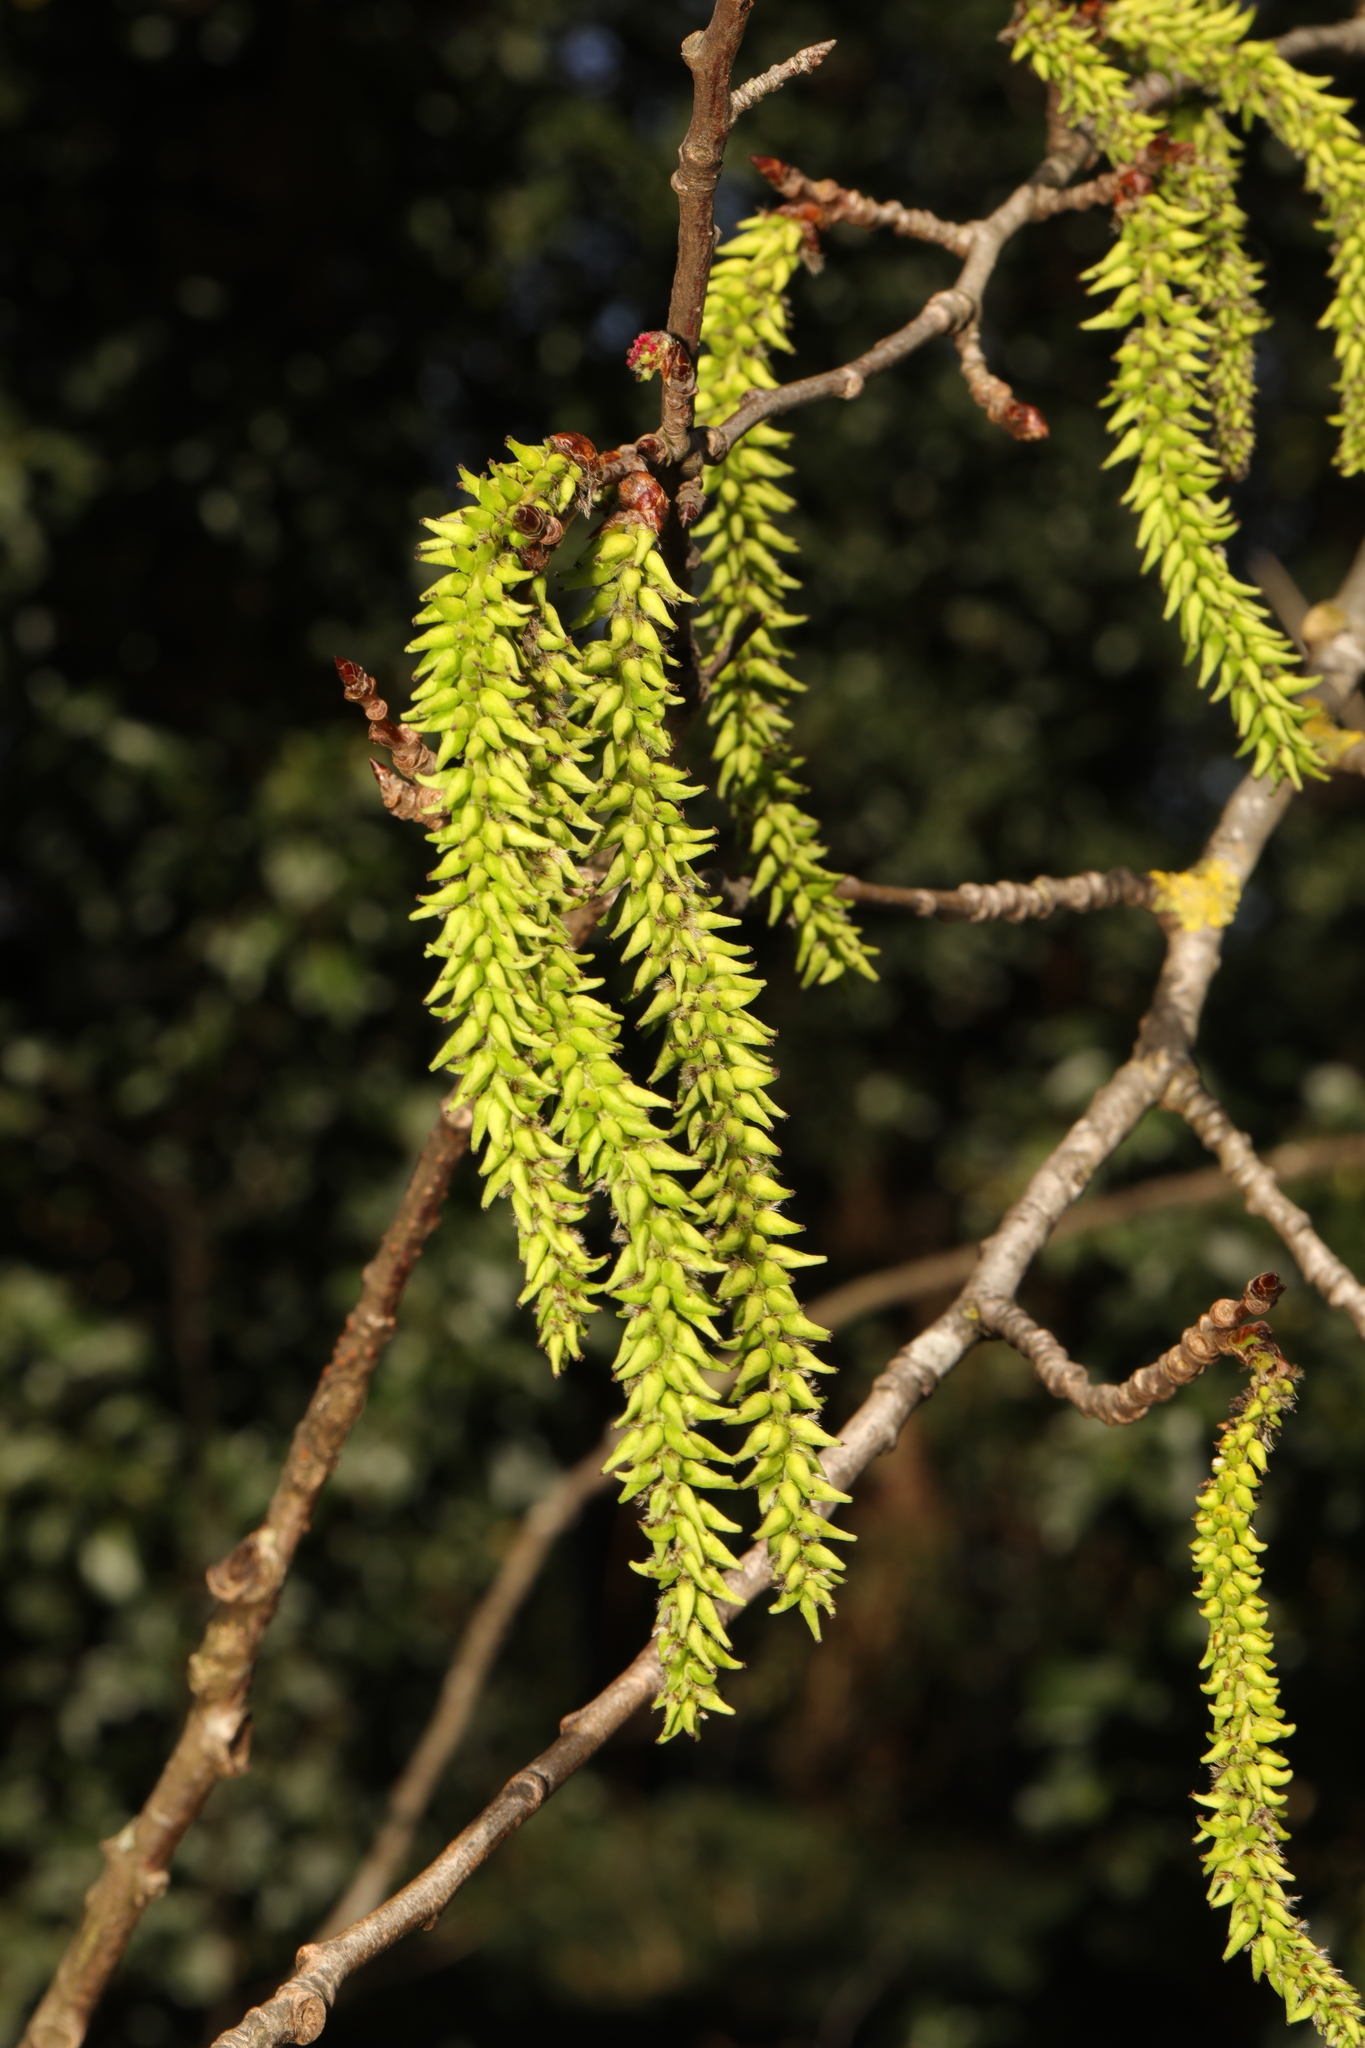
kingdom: Plantae
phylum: Tracheophyta
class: Magnoliopsida
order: Malpighiales
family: Salicaceae
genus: Populus
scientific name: Populus tremula
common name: European aspen
